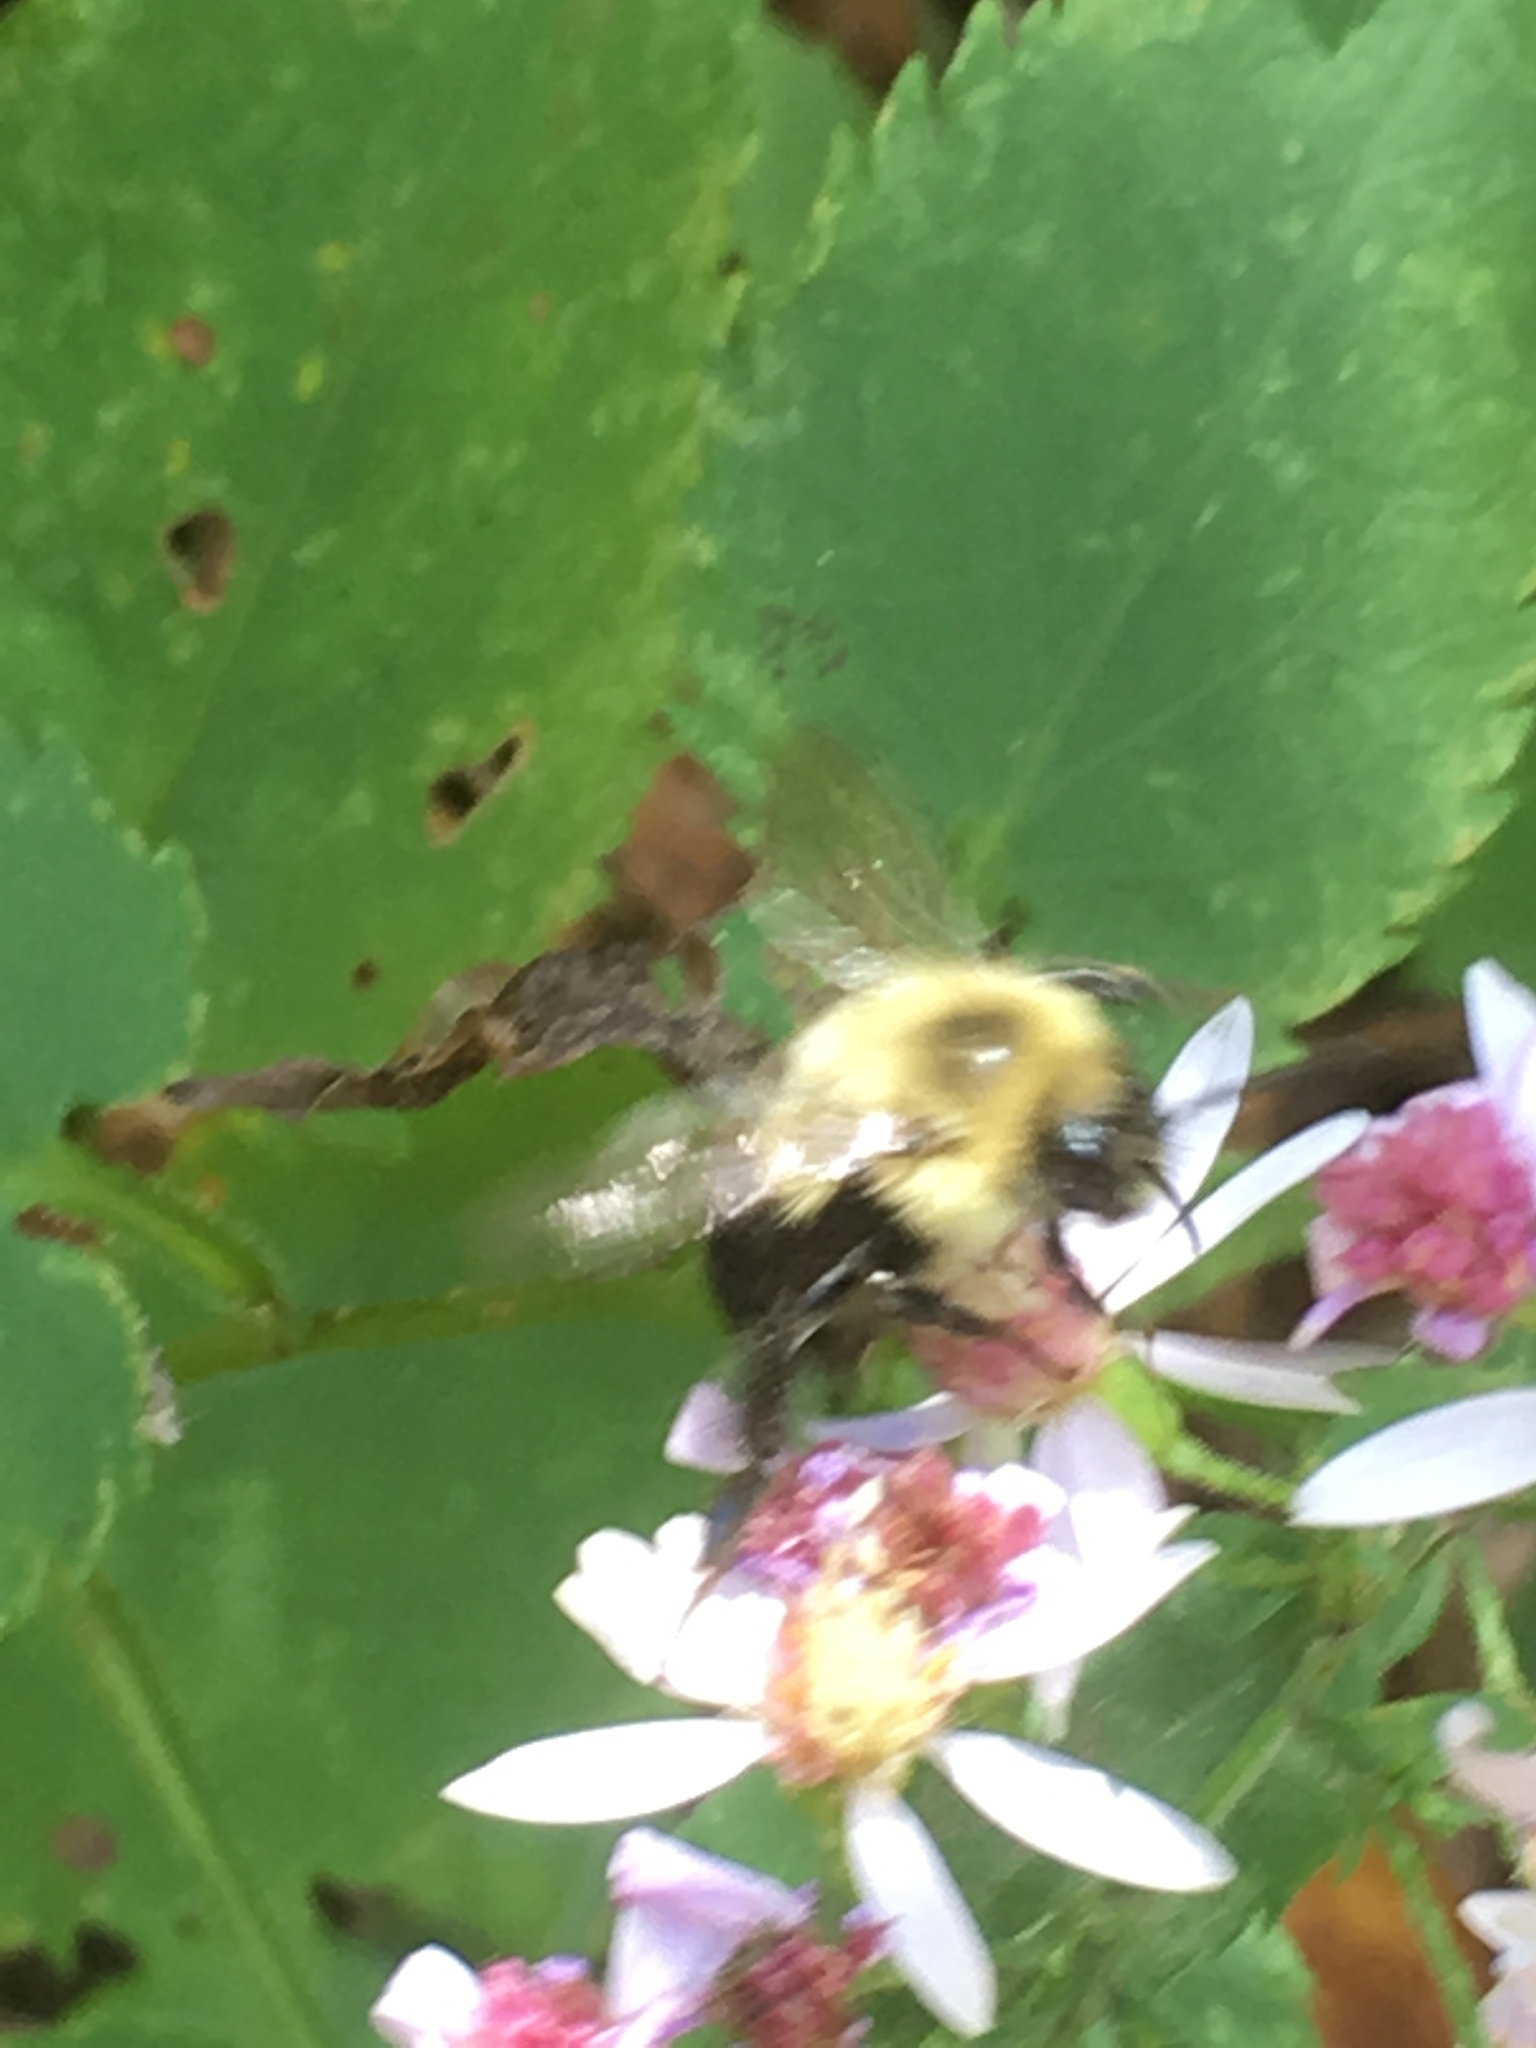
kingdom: Animalia
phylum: Arthropoda
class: Insecta
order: Hymenoptera
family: Apidae
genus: Bombus
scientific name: Bombus impatiens
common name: Common eastern bumble bee
